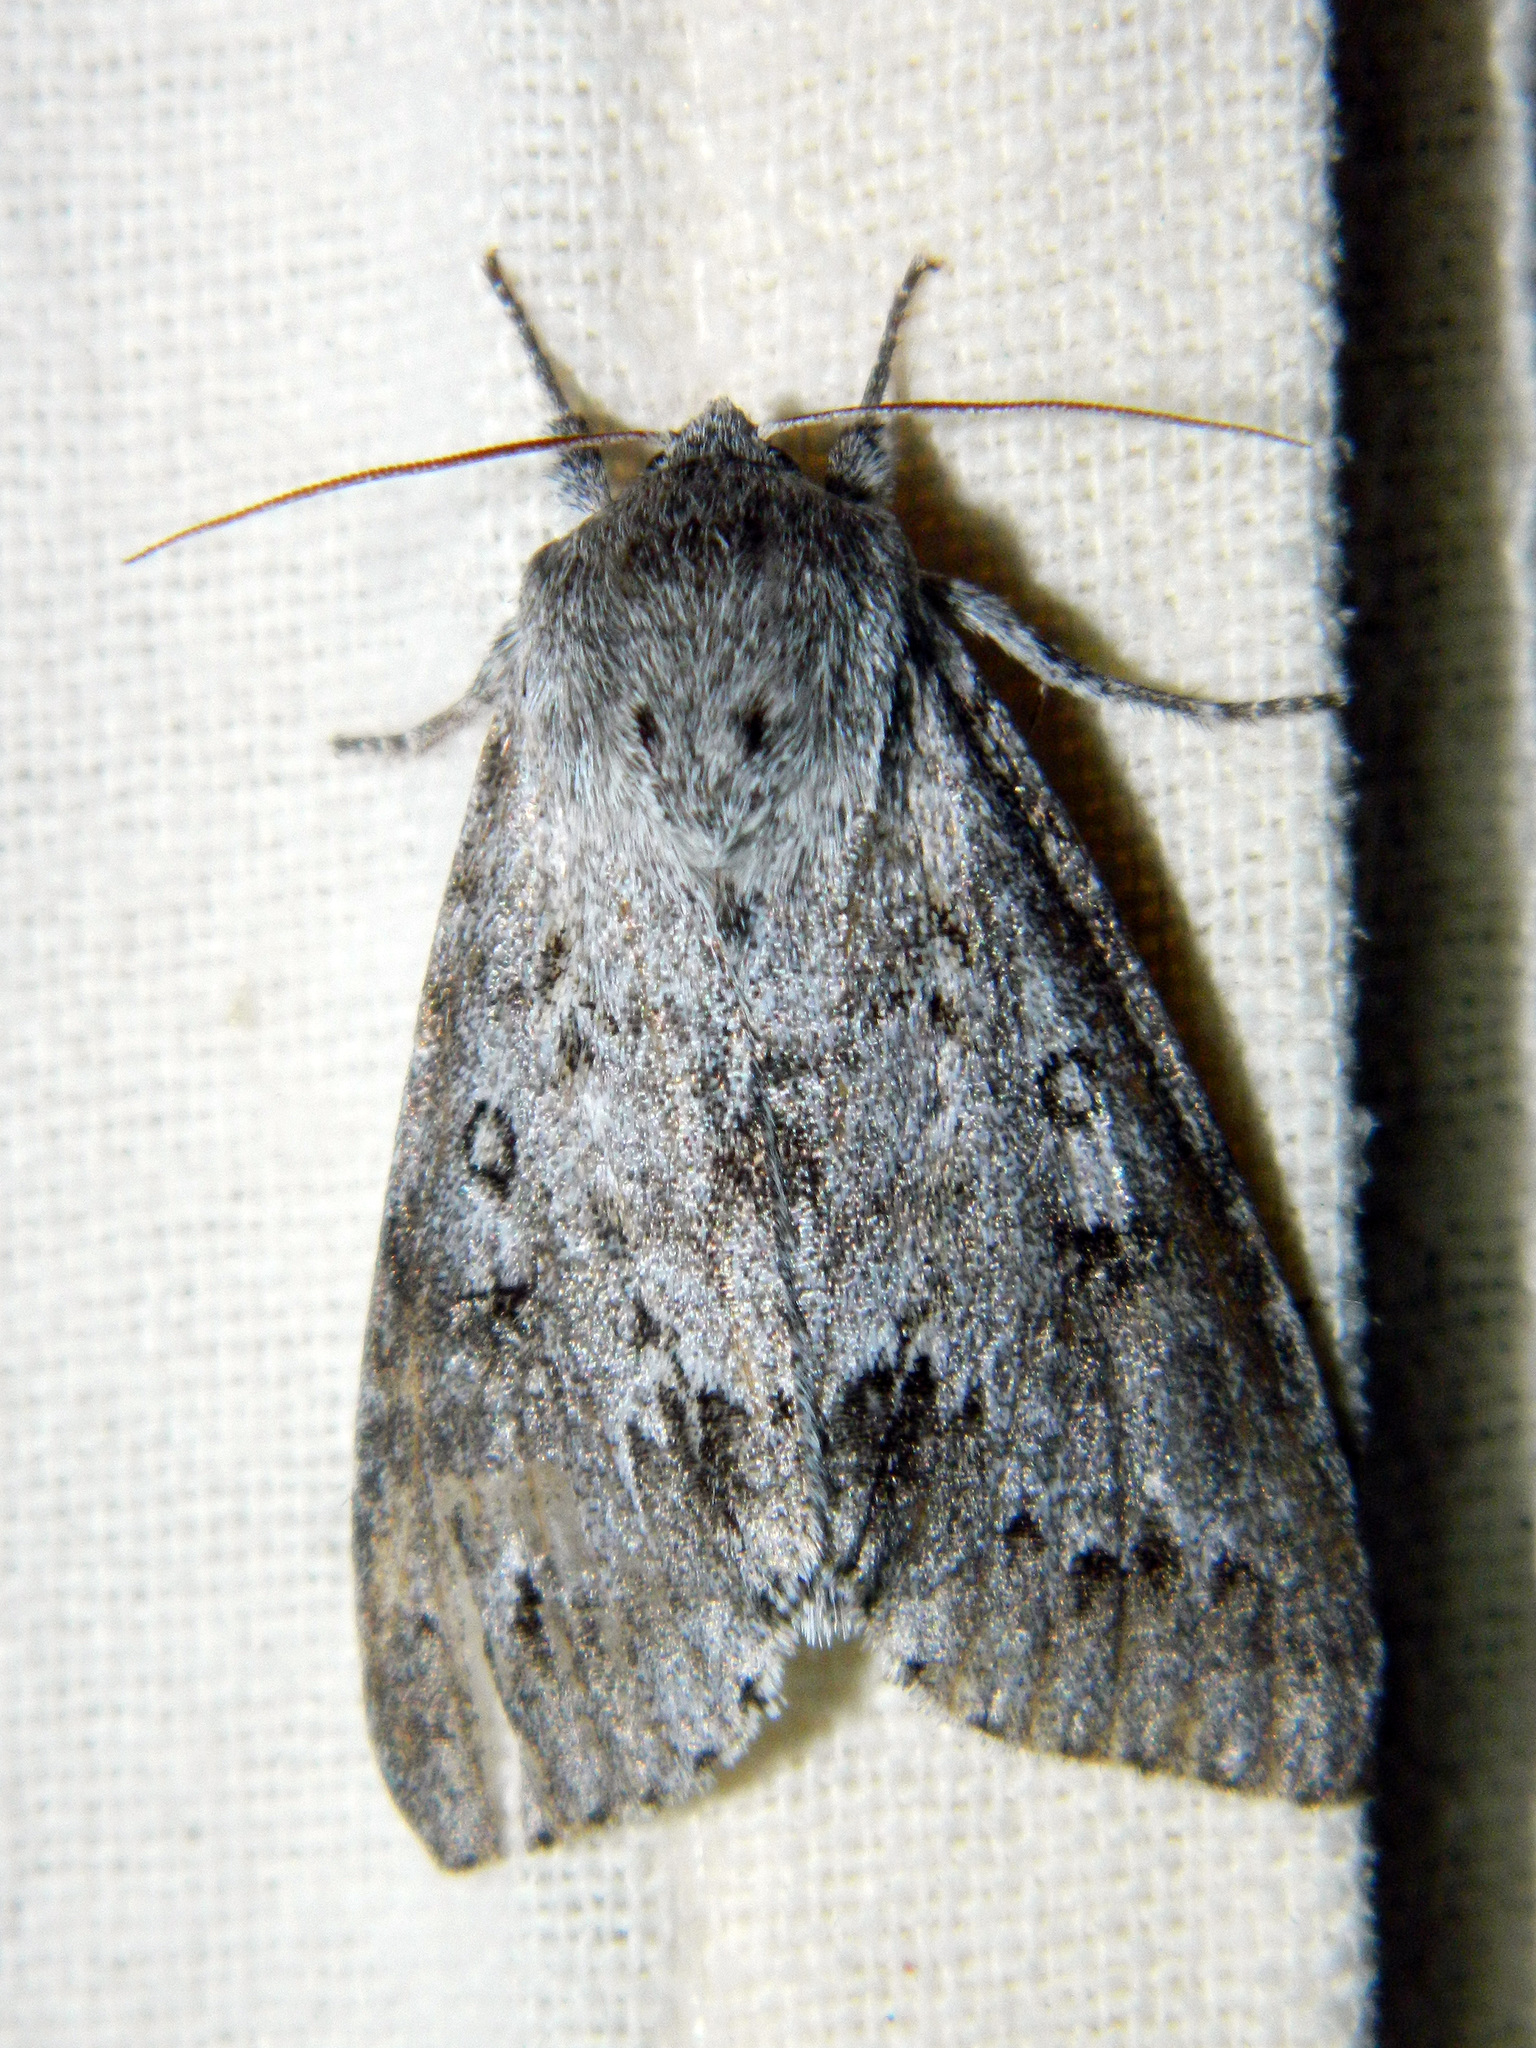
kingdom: Animalia
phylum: Arthropoda
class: Insecta
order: Lepidoptera
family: Noctuidae
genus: Acronicta
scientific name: Acronicta insita
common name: Large gray dagger
